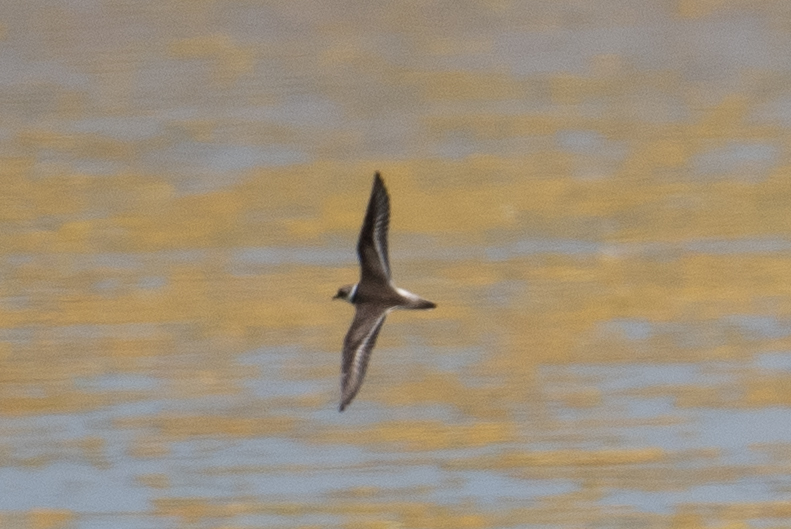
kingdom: Animalia
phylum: Chordata
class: Aves
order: Charadriiformes
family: Charadriidae
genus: Charadrius
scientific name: Charadrius semipalmatus
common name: Semipalmated plover
